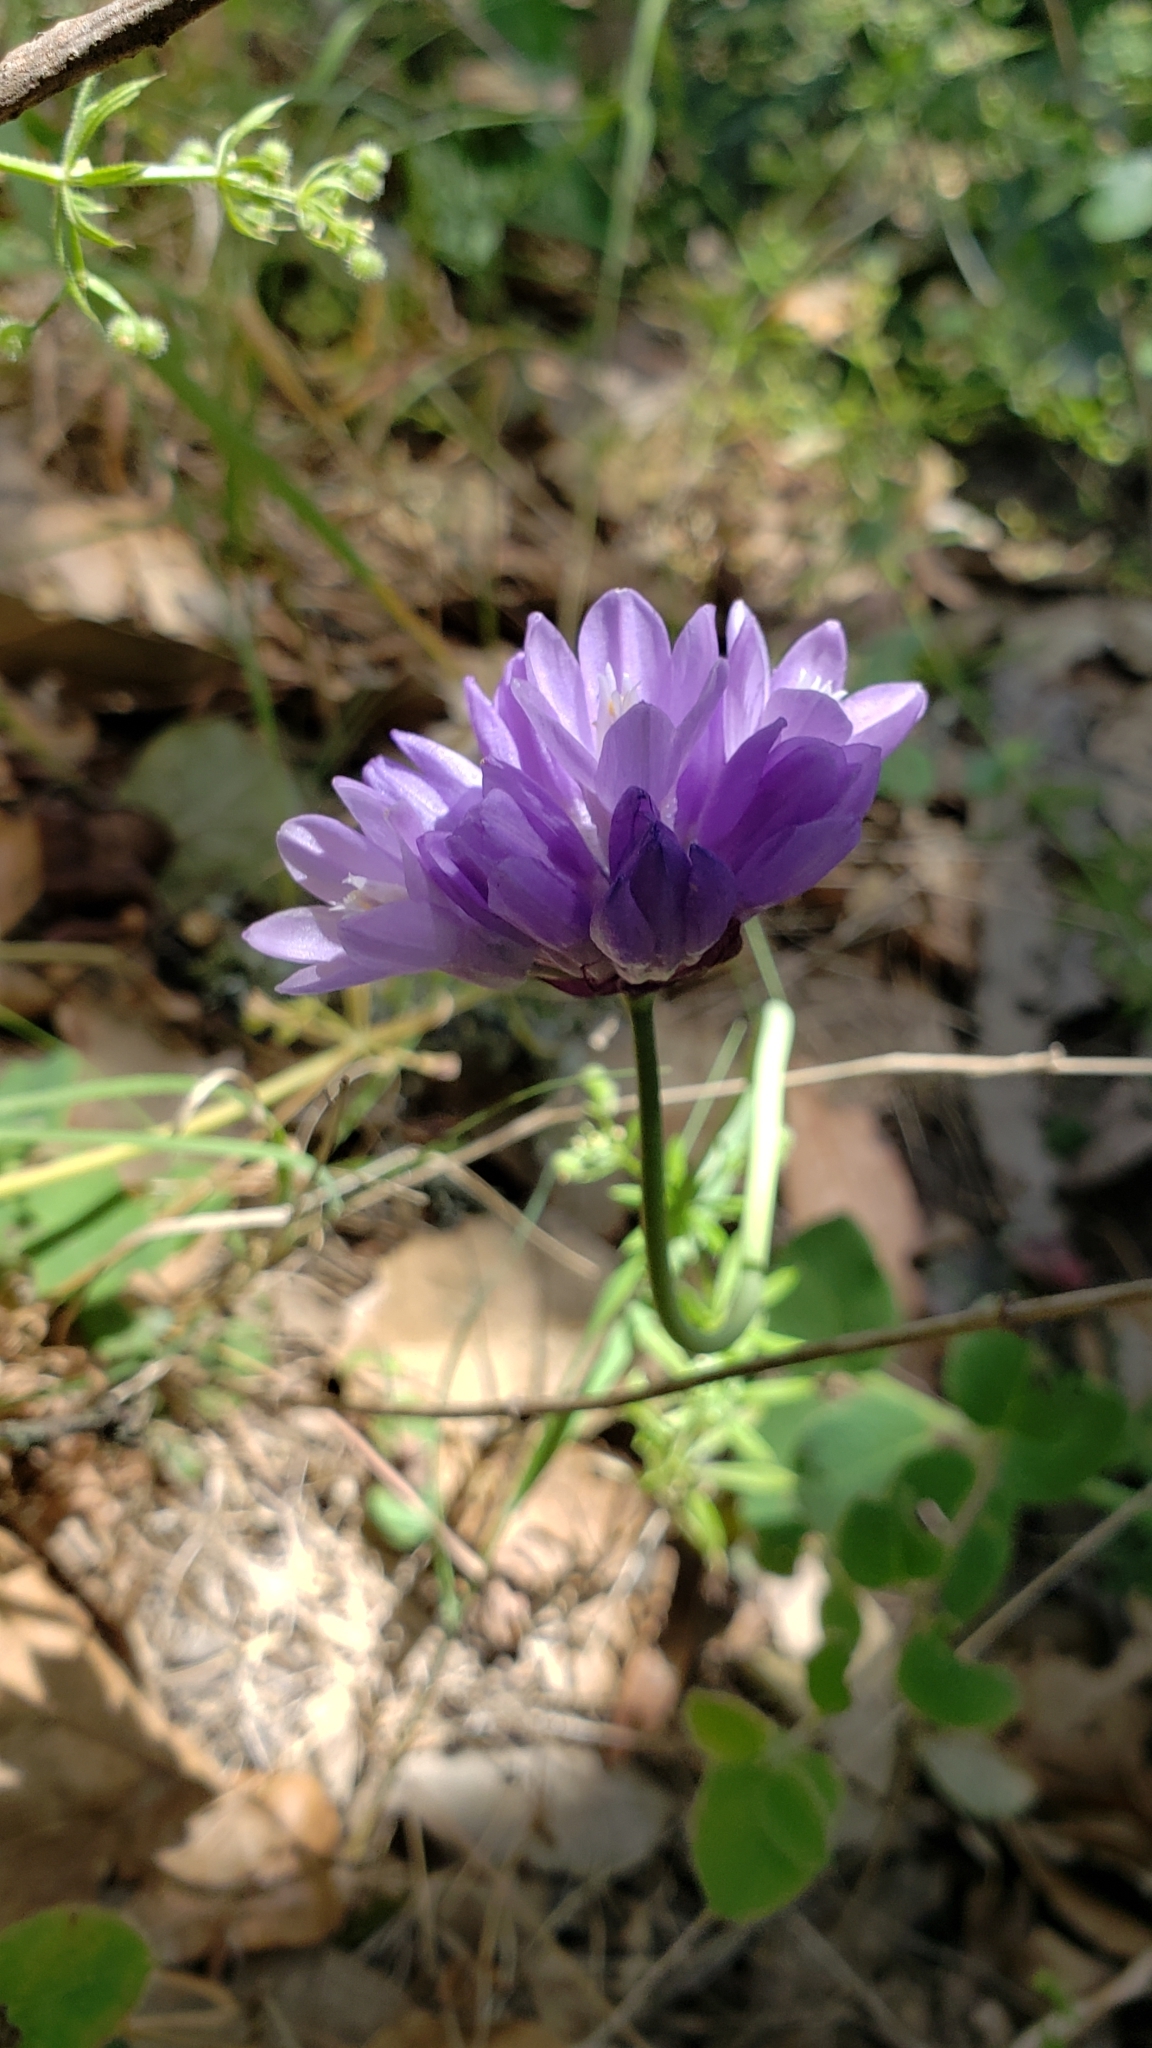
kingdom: Plantae
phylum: Tracheophyta
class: Liliopsida
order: Asparagales
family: Asparagaceae
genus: Dipterostemon
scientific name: Dipterostemon capitatus
